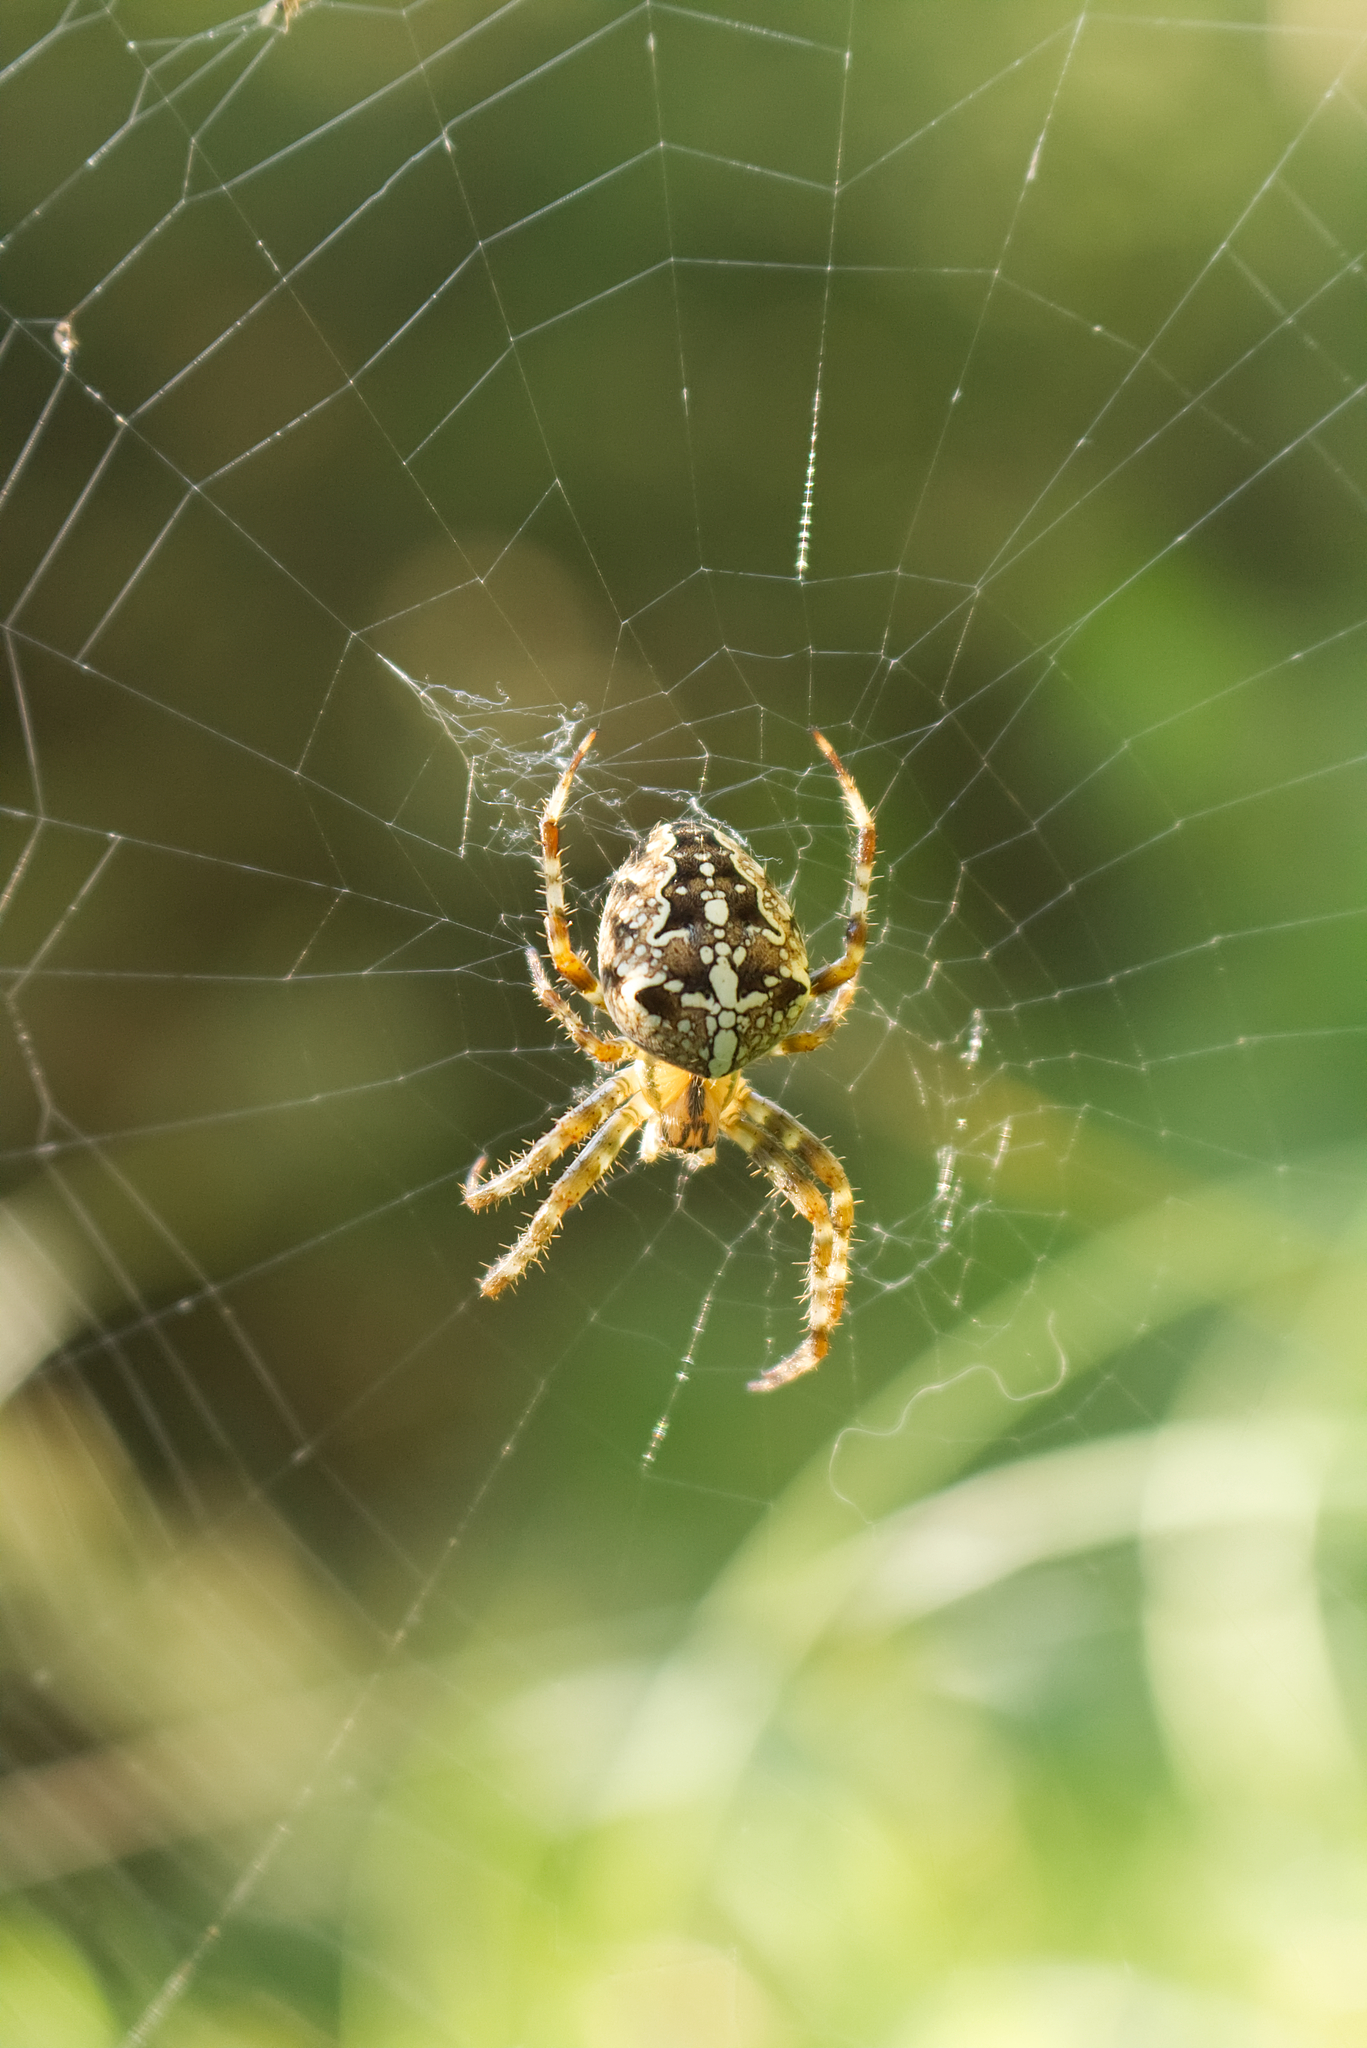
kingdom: Animalia
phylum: Arthropoda
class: Arachnida
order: Araneae
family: Araneidae
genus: Araneus
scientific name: Araneus diadematus
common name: Cross orbweaver
